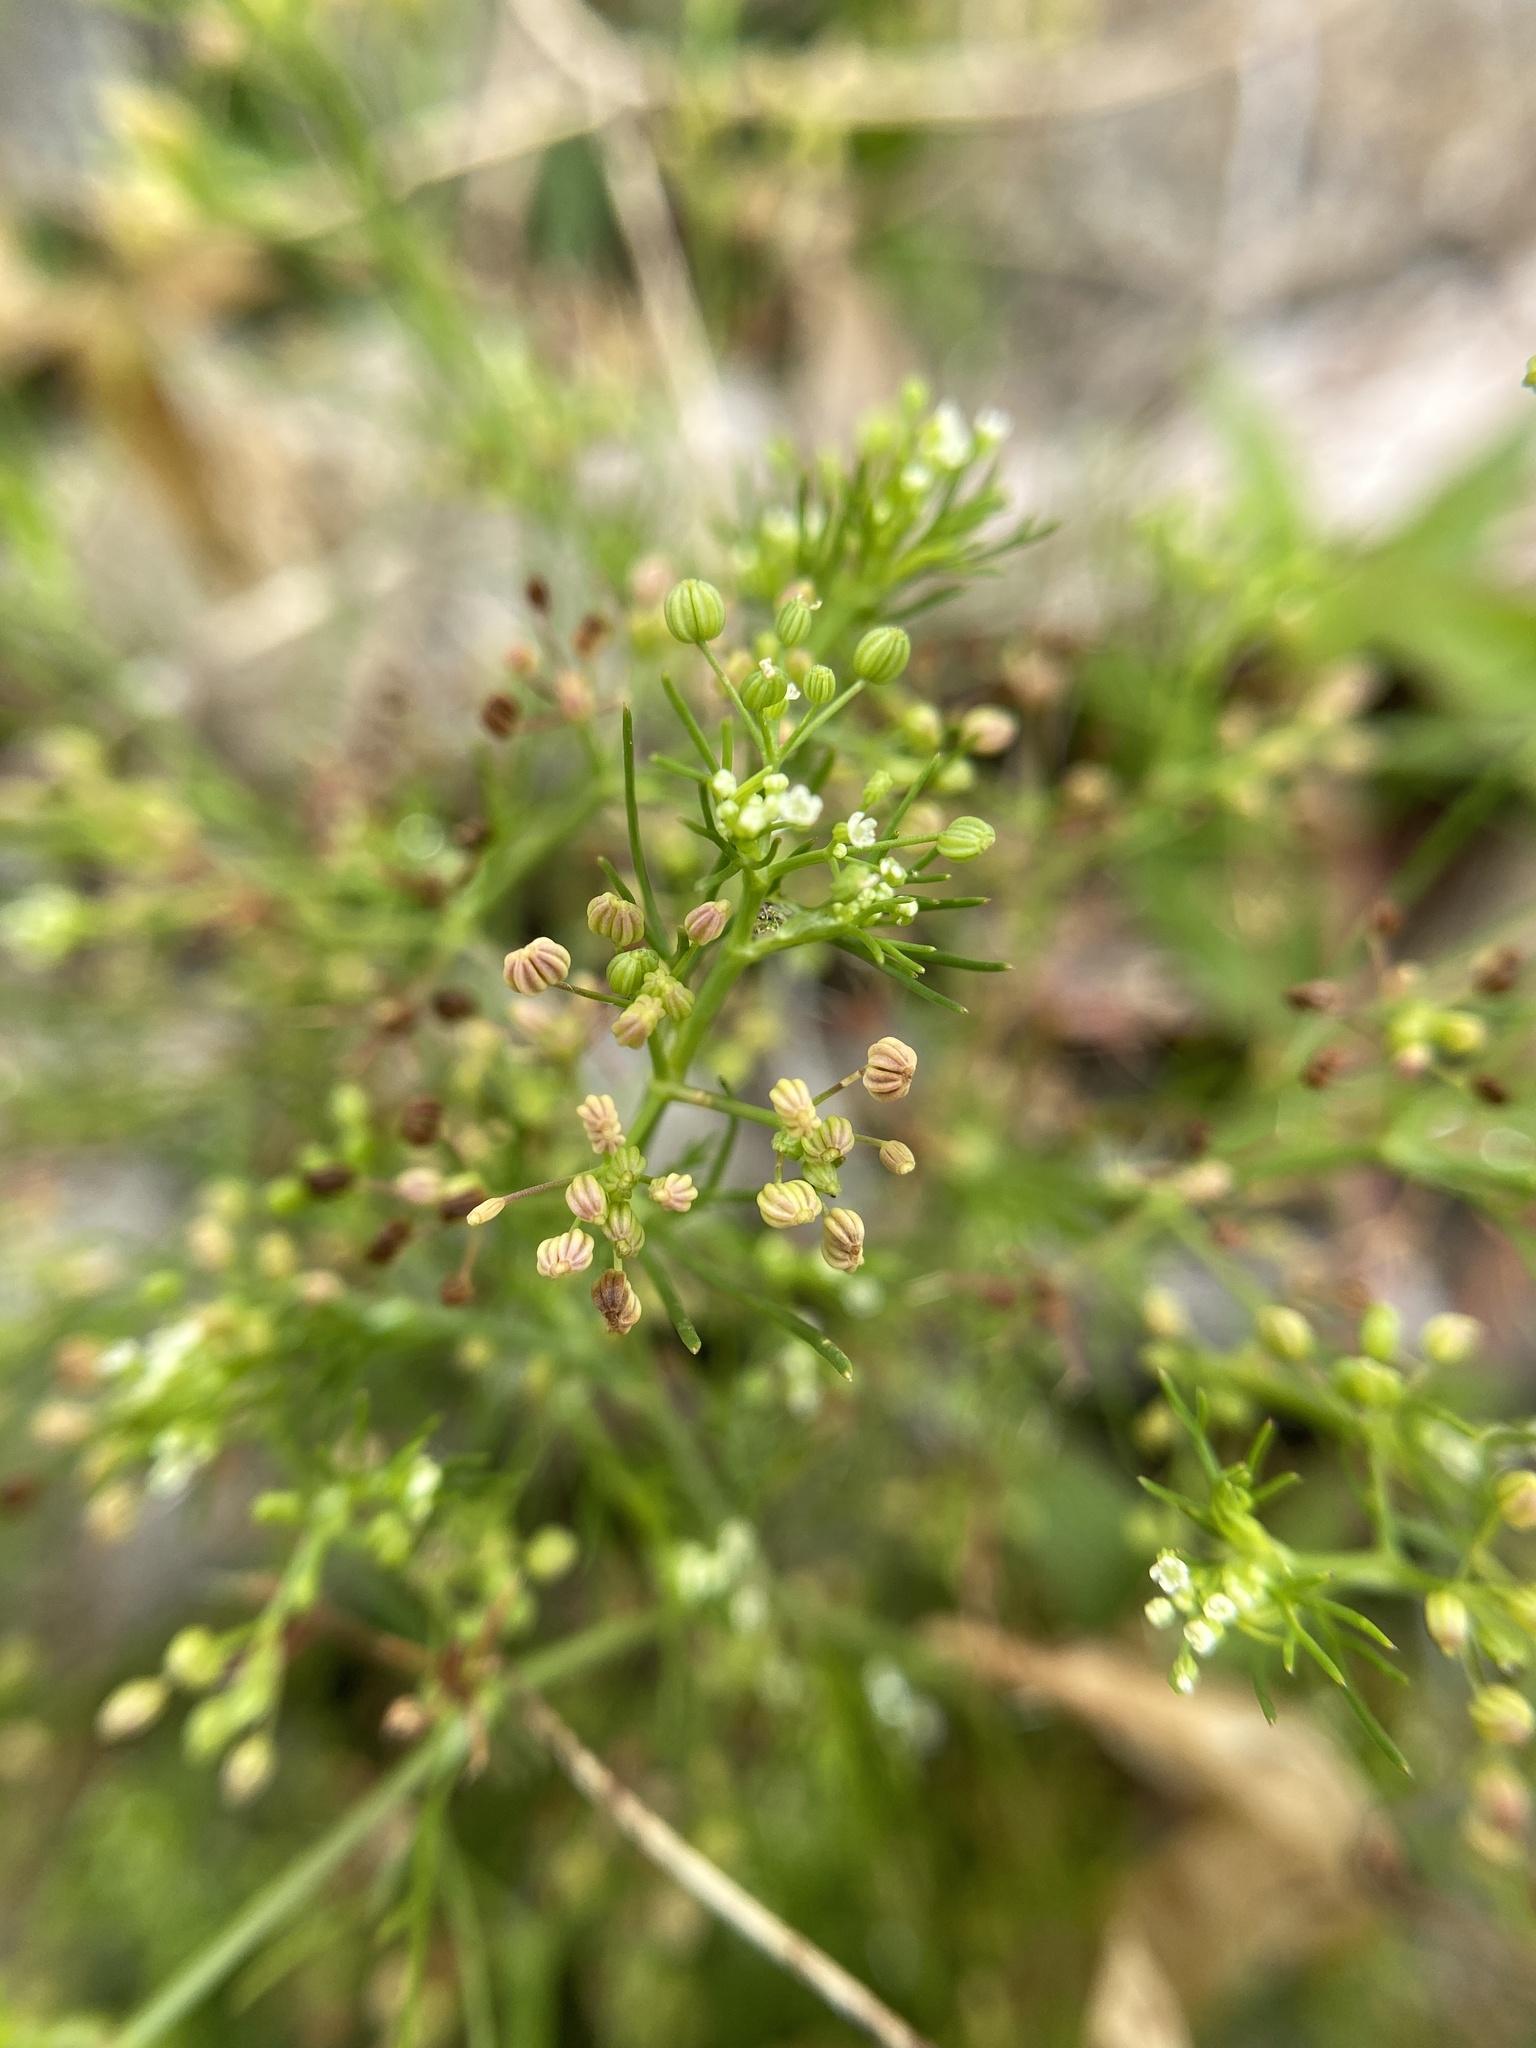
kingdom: Plantae
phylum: Tracheophyta
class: Magnoliopsida
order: Apiales
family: Apiaceae
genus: Cyclospermum
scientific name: Cyclospermum leptophyllum
